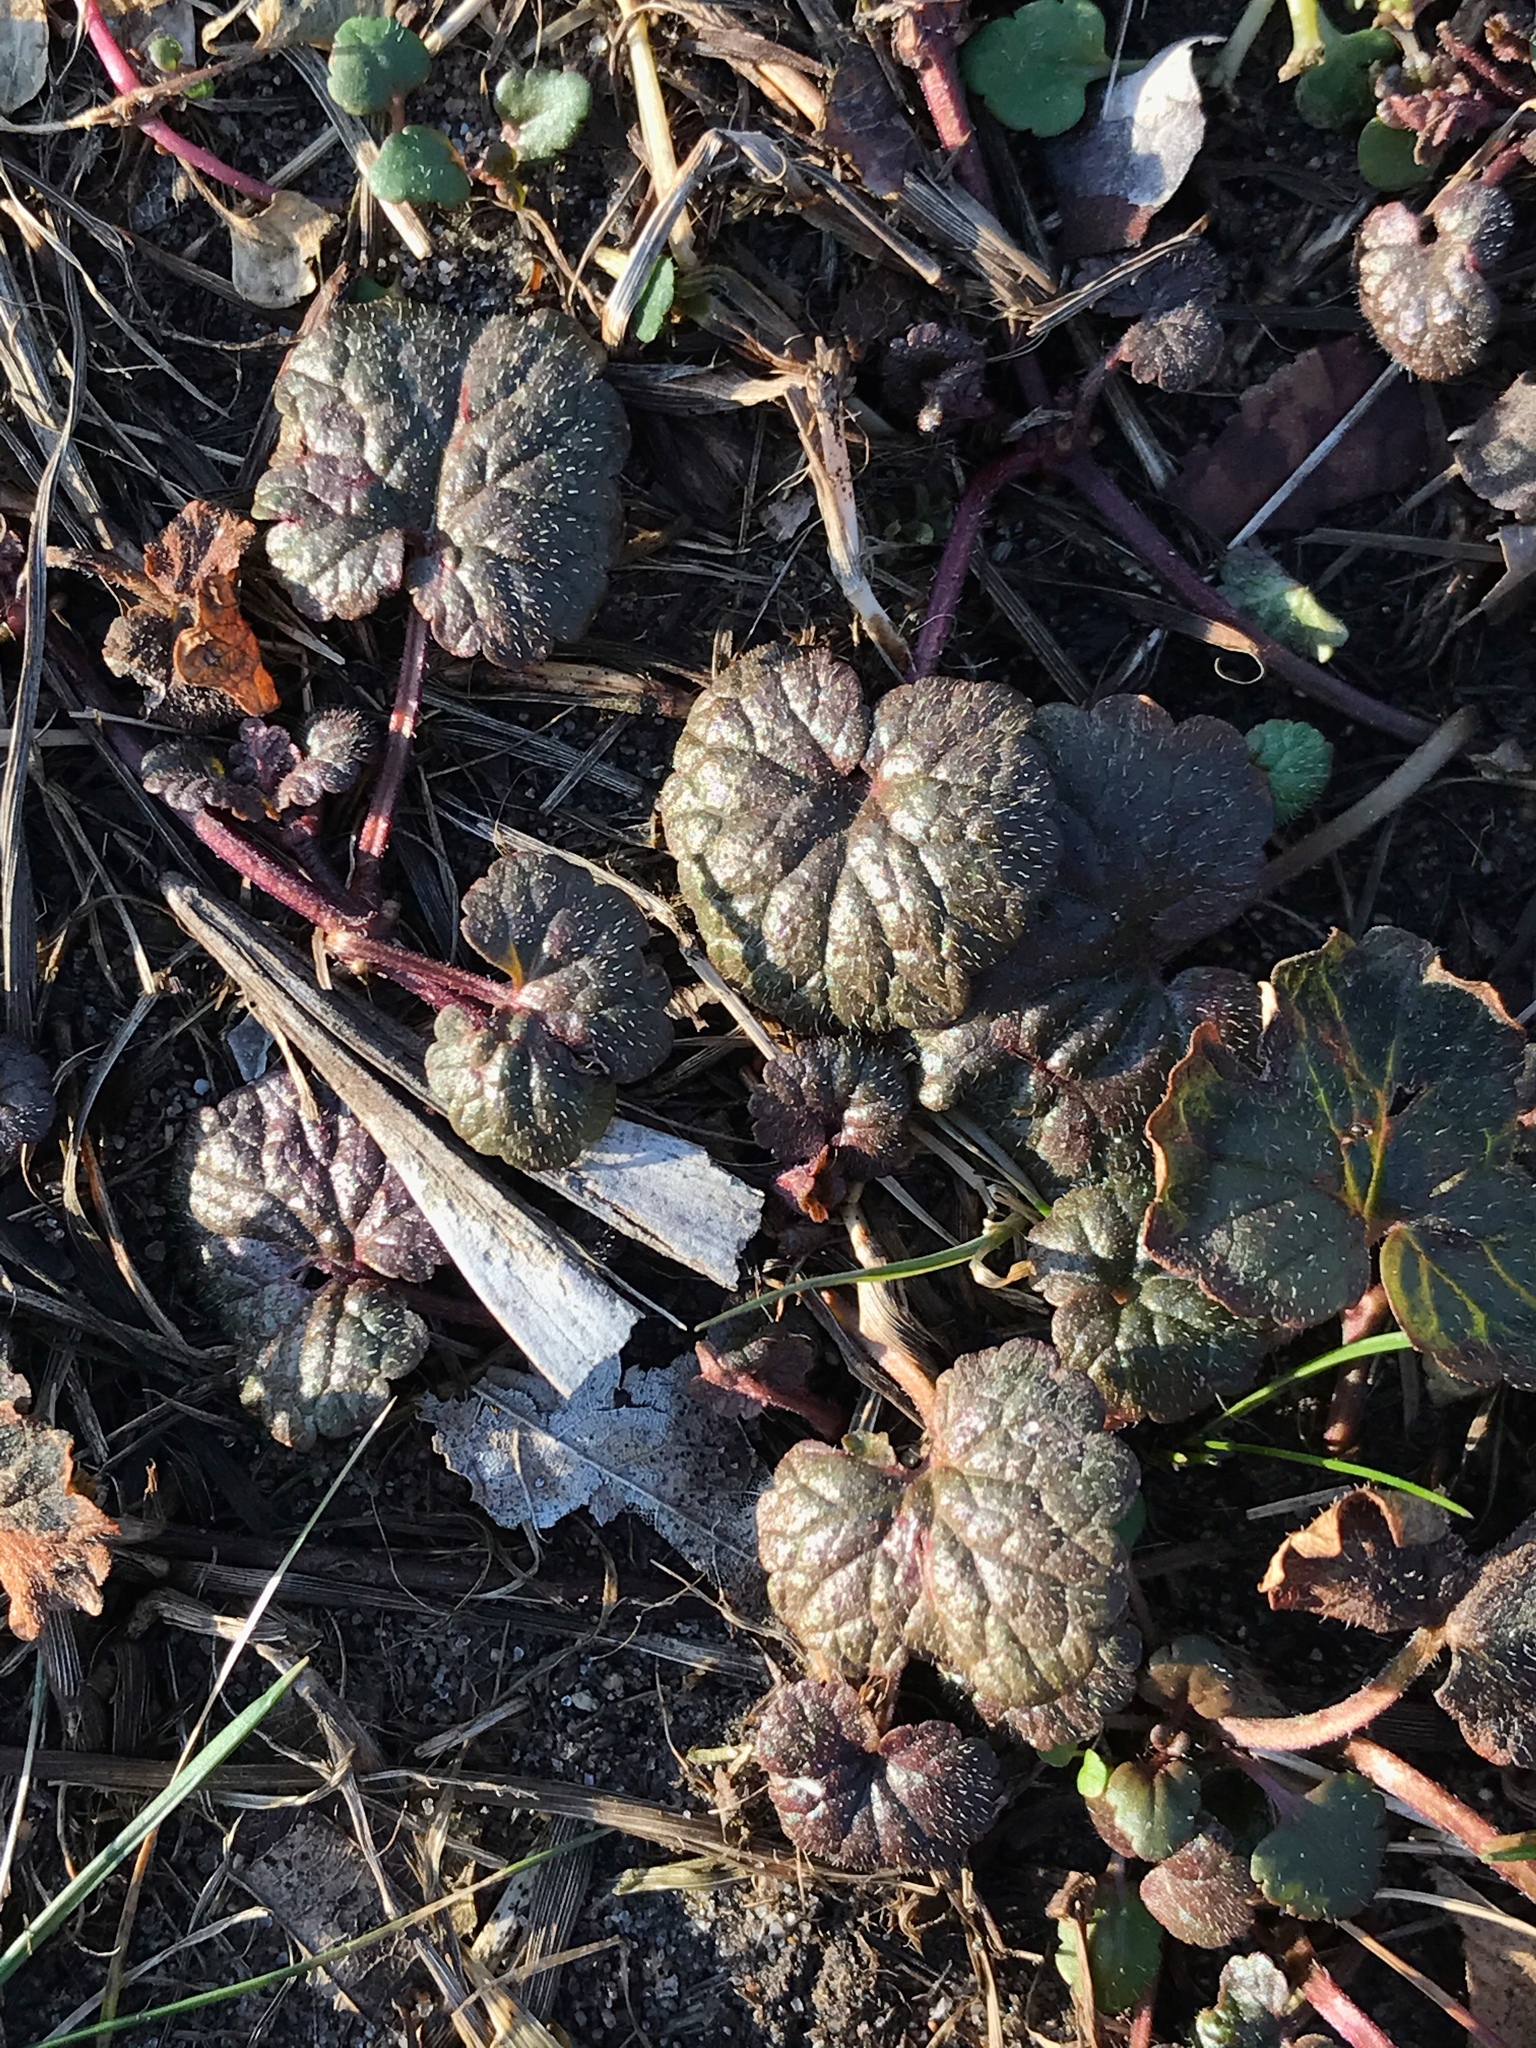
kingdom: Plantae
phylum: Tracheophyta
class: Magnoliopsida
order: Lamiales
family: Lamiaceae
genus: Glechoma
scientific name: Glechoma hederacea
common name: Ground ivy
